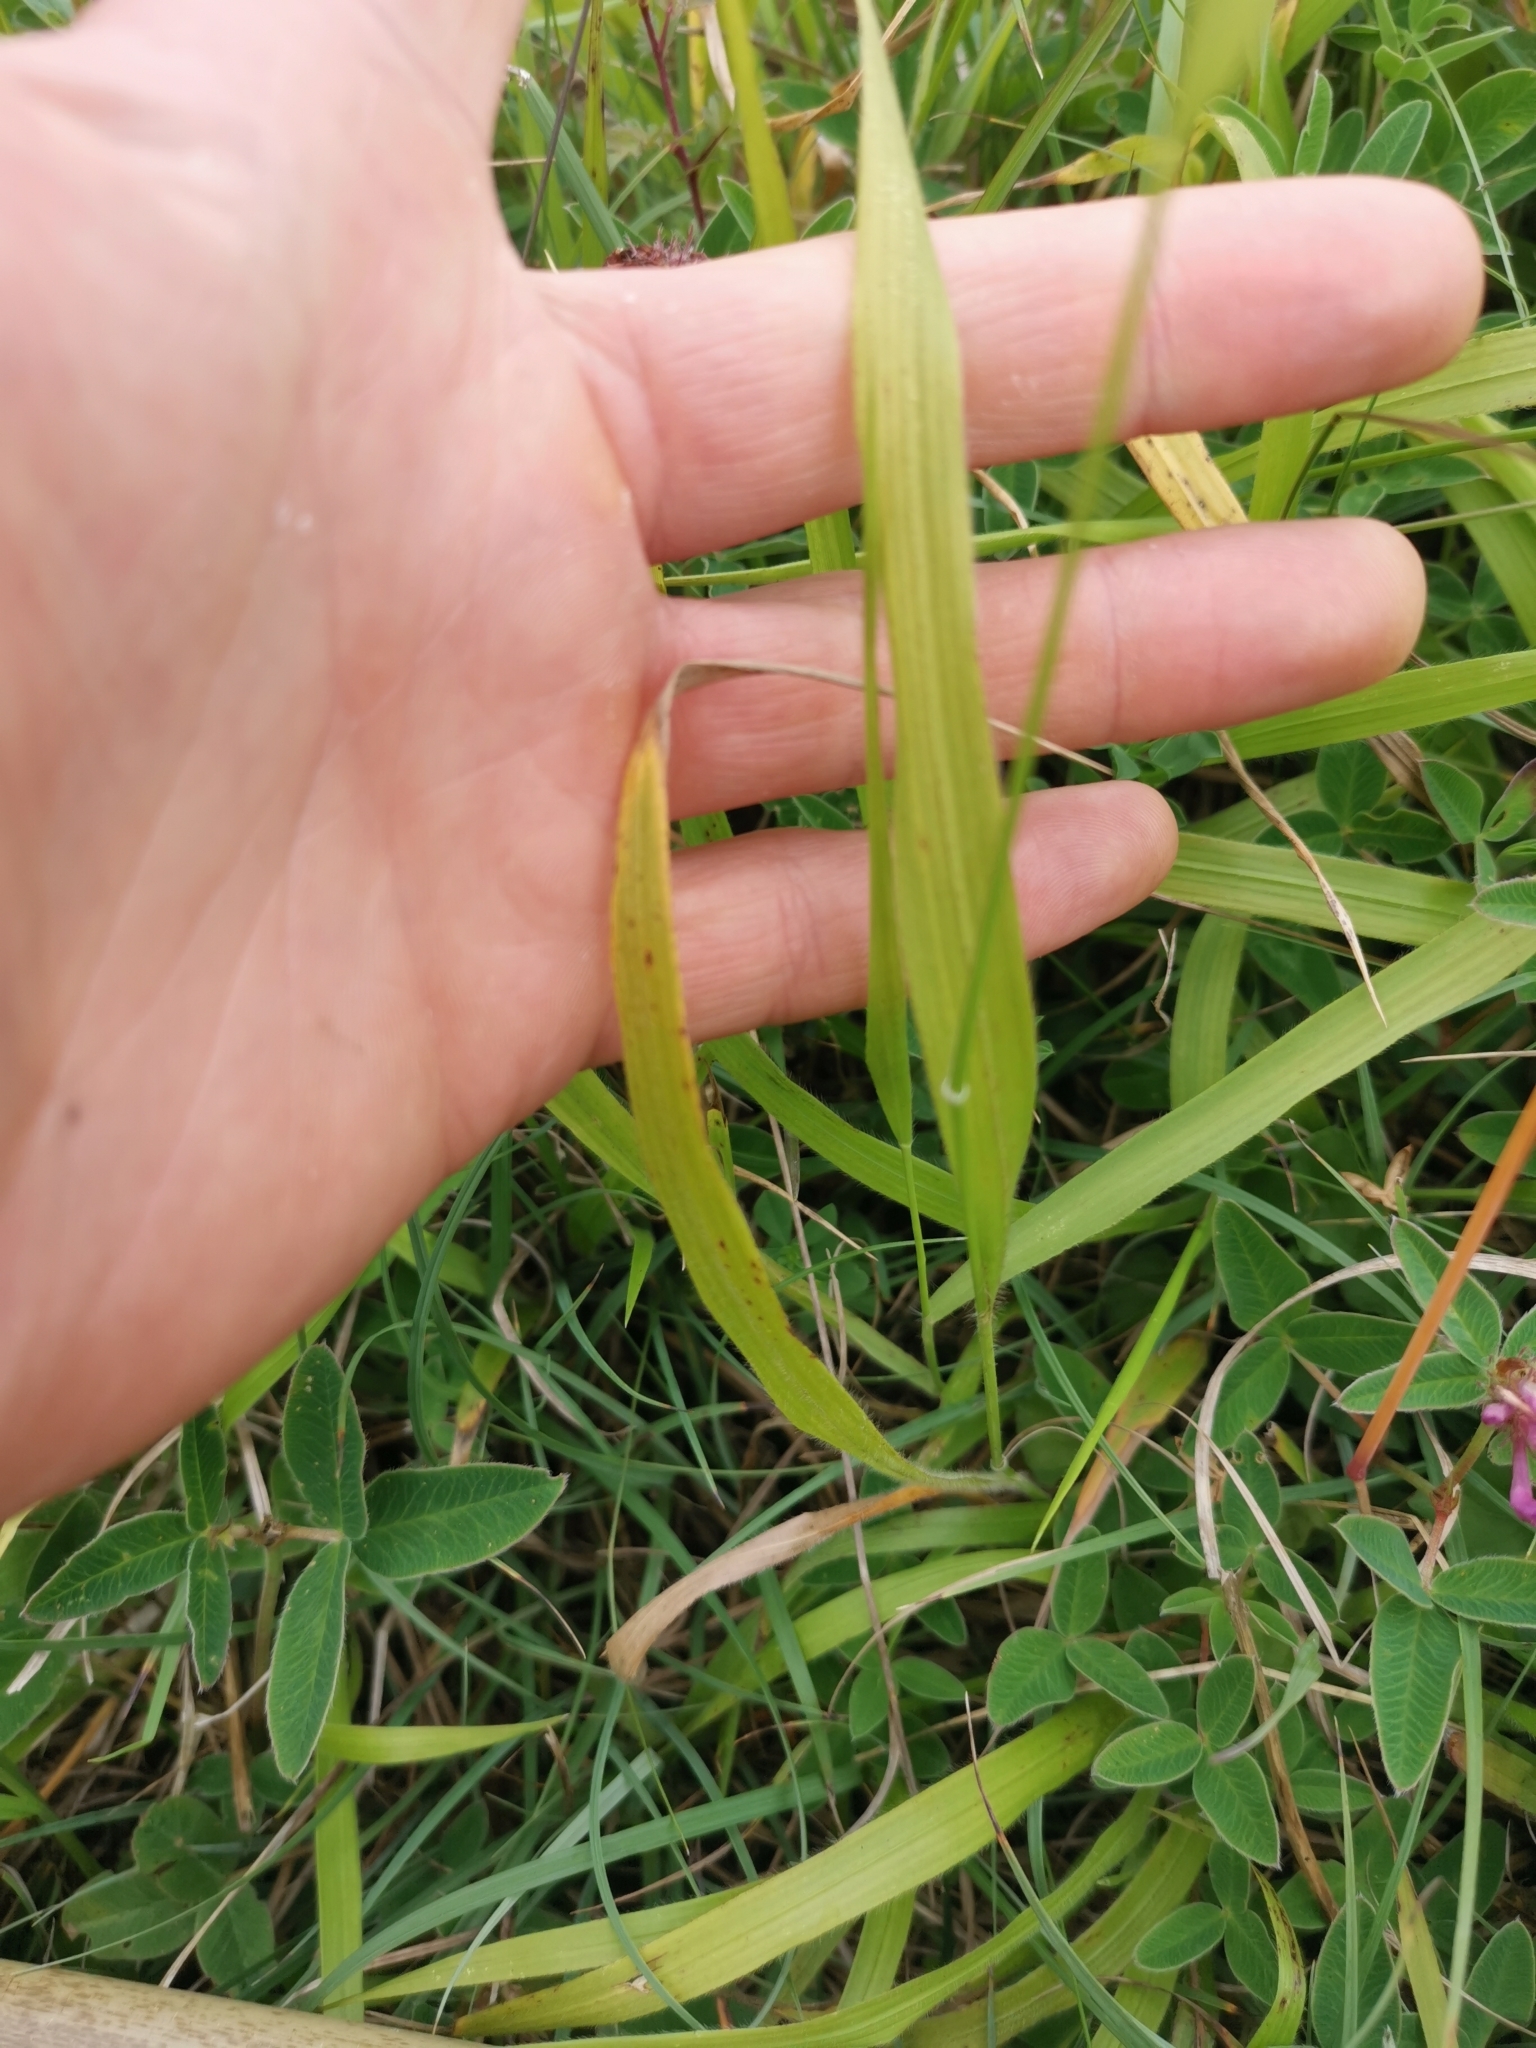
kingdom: Plantae
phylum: Tracheophyta
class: Liliopsida
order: Poales
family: Poaceae
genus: Brachypodium
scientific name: Brachypodium sylvaticum
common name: False-brome
